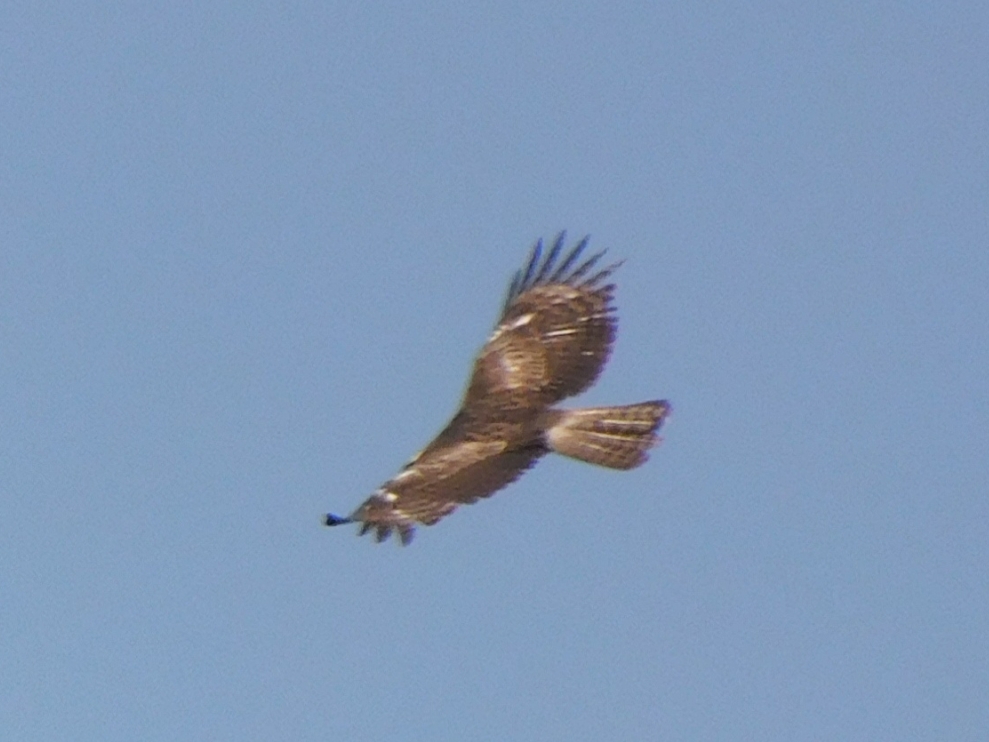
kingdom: Animalia
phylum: Chordata
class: Aves
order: Accipitriformes
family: Accipitridae
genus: Nisaetus
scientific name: Nisaetus nipalensis
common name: Mountain hawk-eagle
